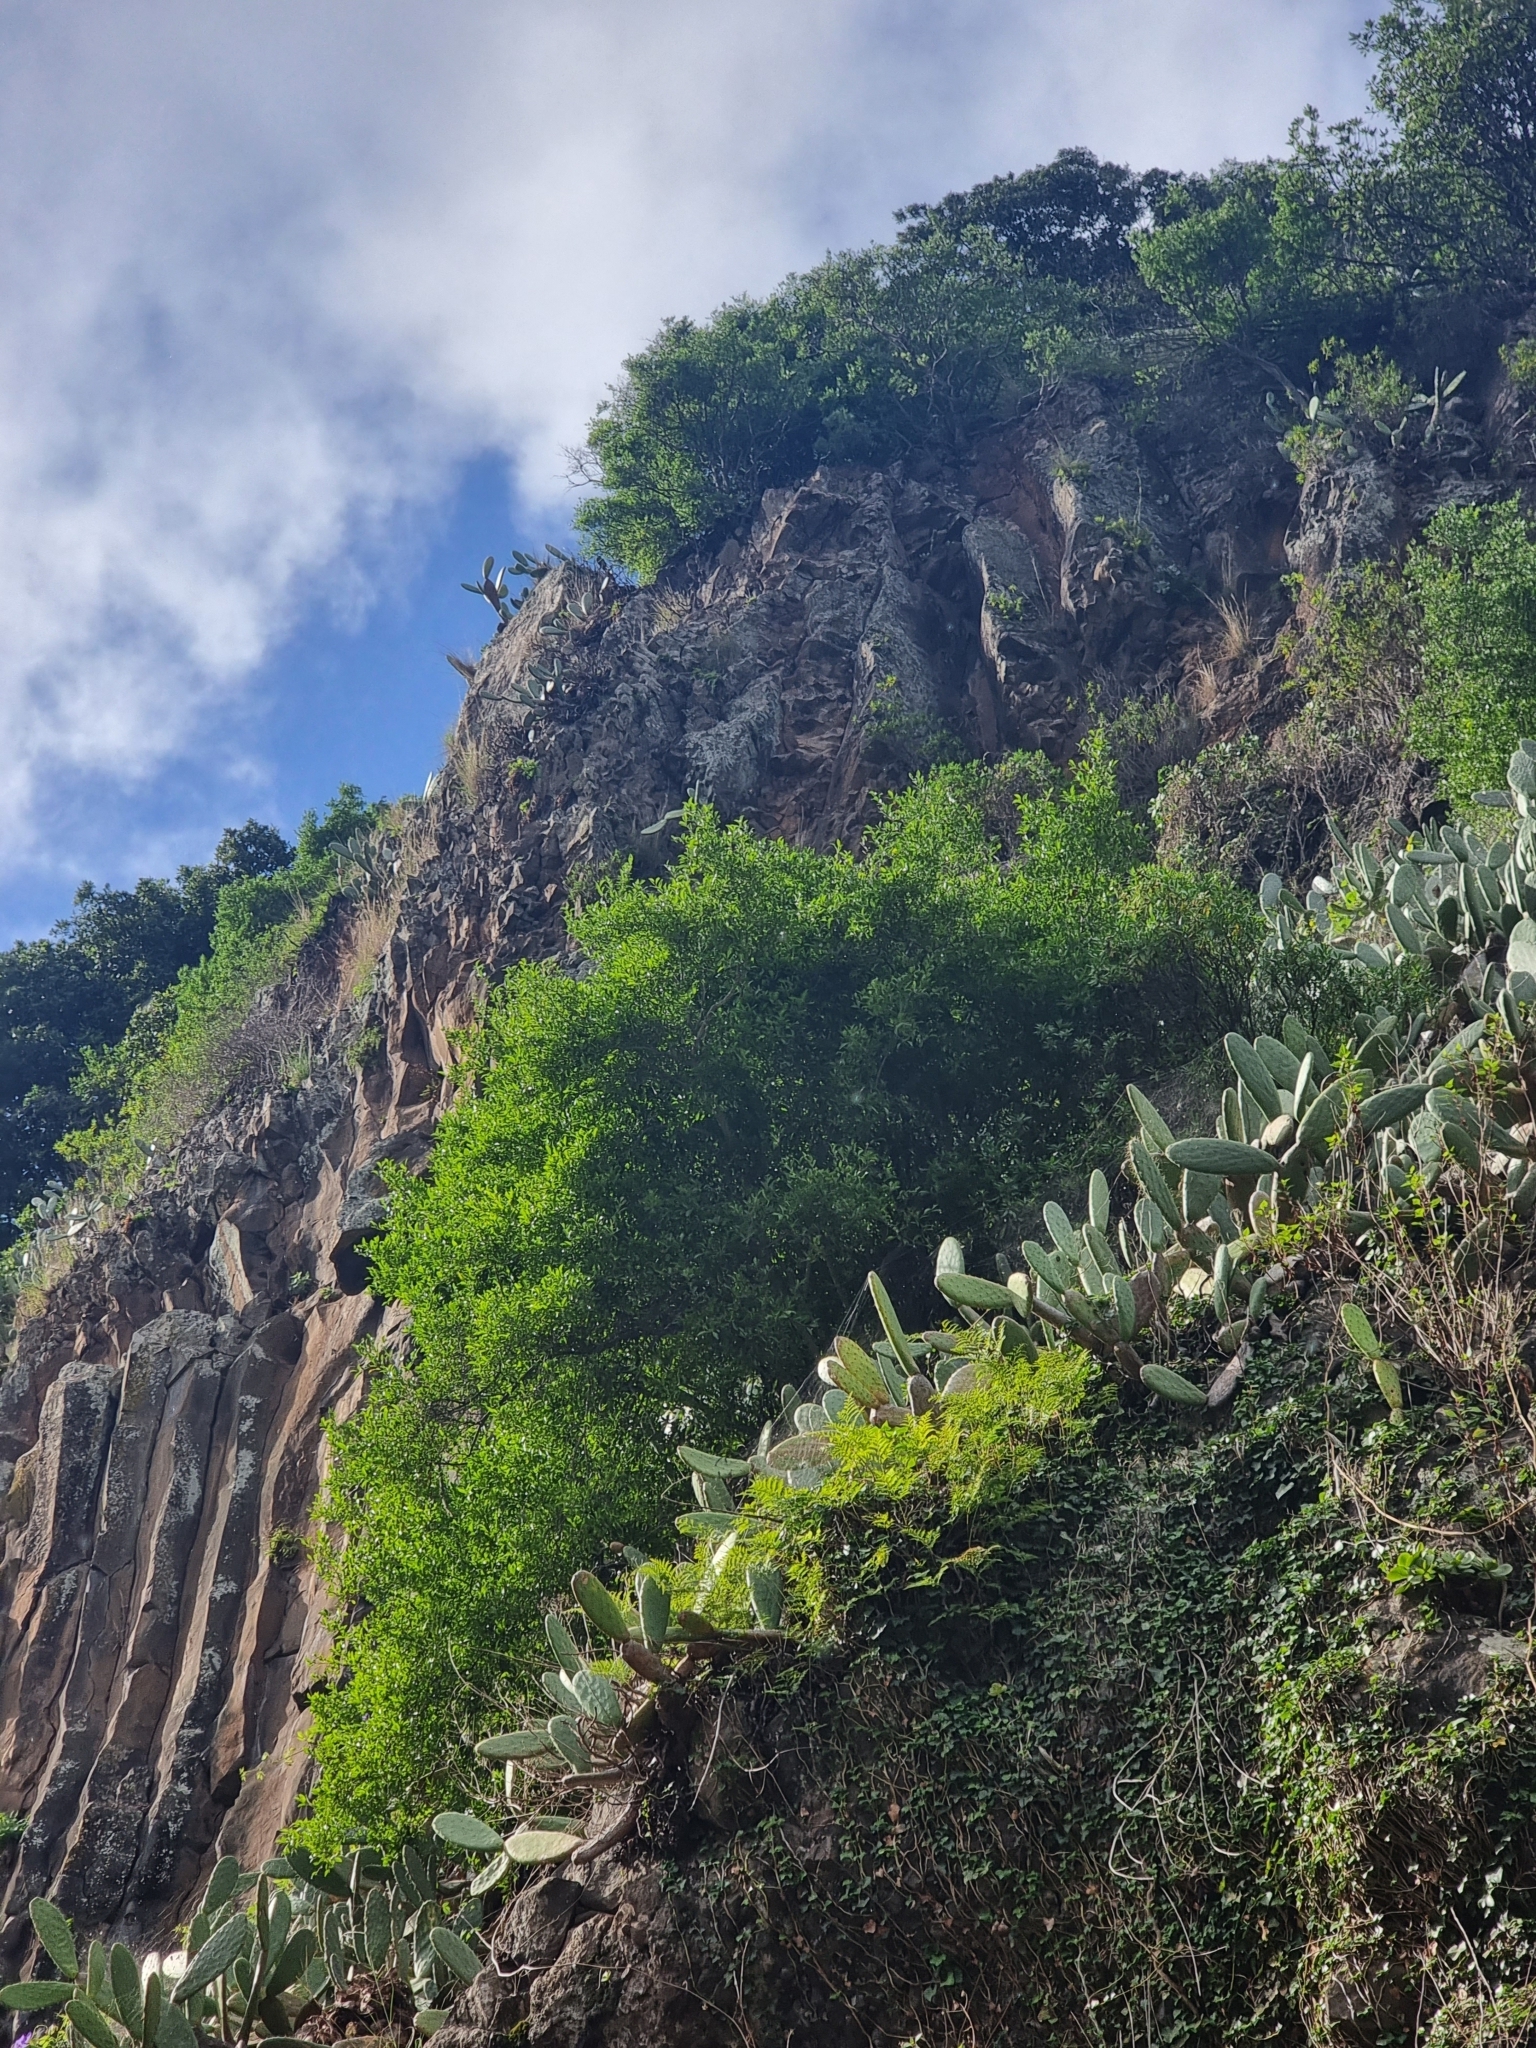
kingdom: Plantae
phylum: Tracheophyta
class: Magnoliopsida
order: Celastrales
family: Celastraceae
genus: Gymnosporia
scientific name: Gymnosporia dryandri
